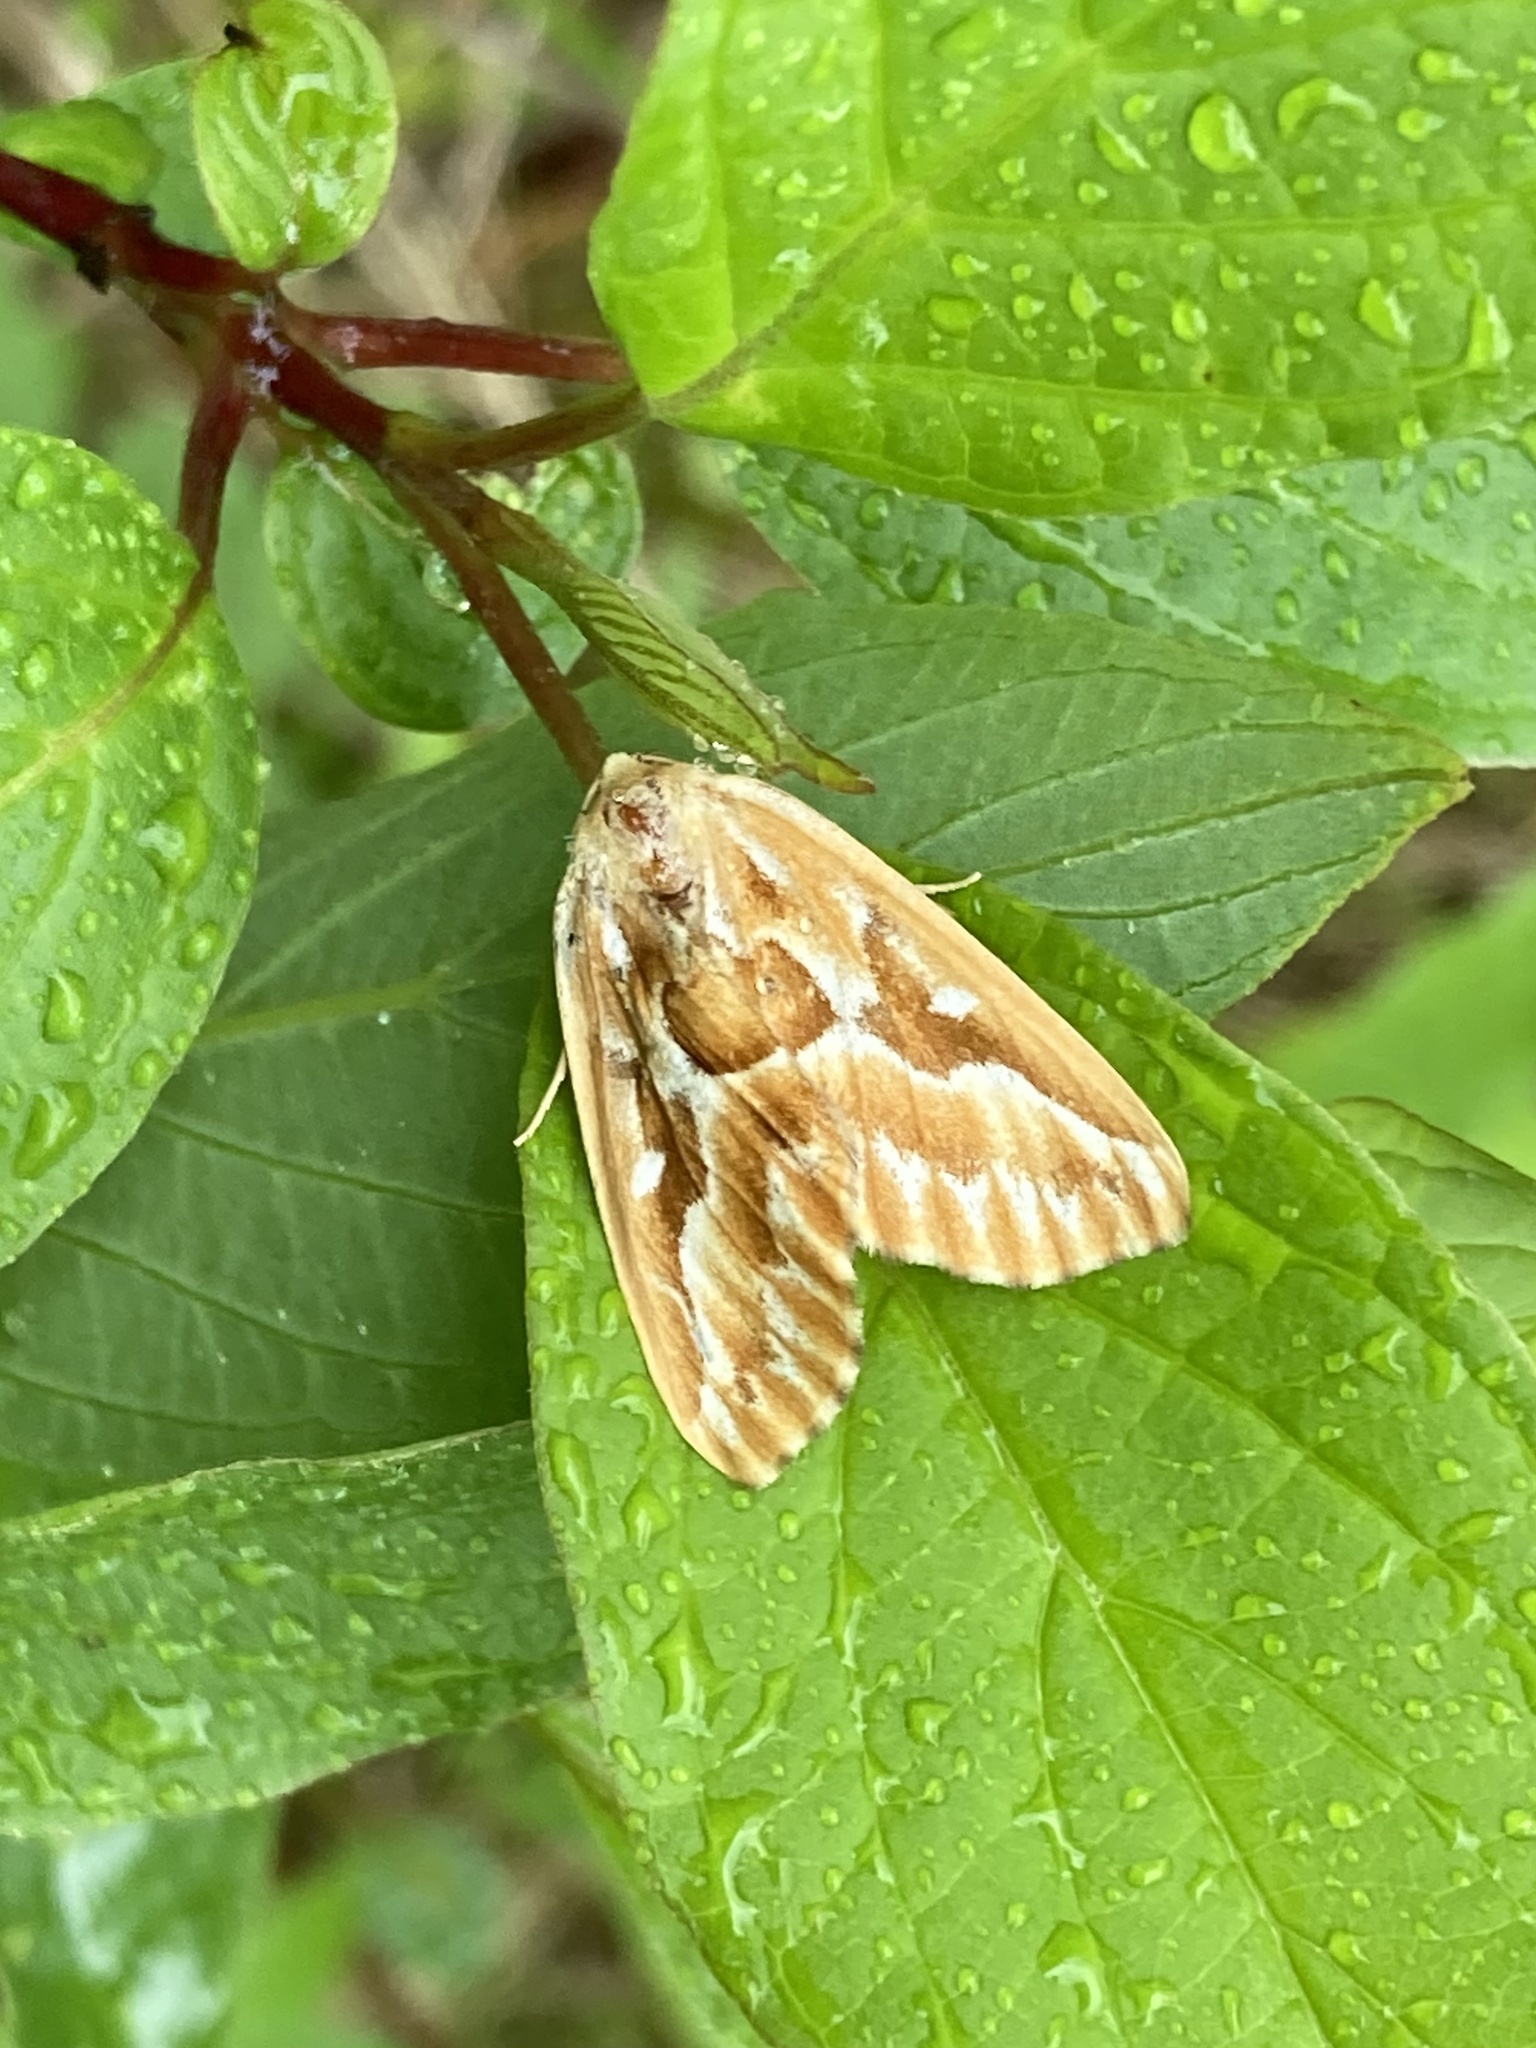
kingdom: Animalia
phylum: Arthropoda
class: Insecta
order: Lepidoptera
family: Geometridae
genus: Caripeta
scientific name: Caripeta piniata
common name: Northern pine looper moth
